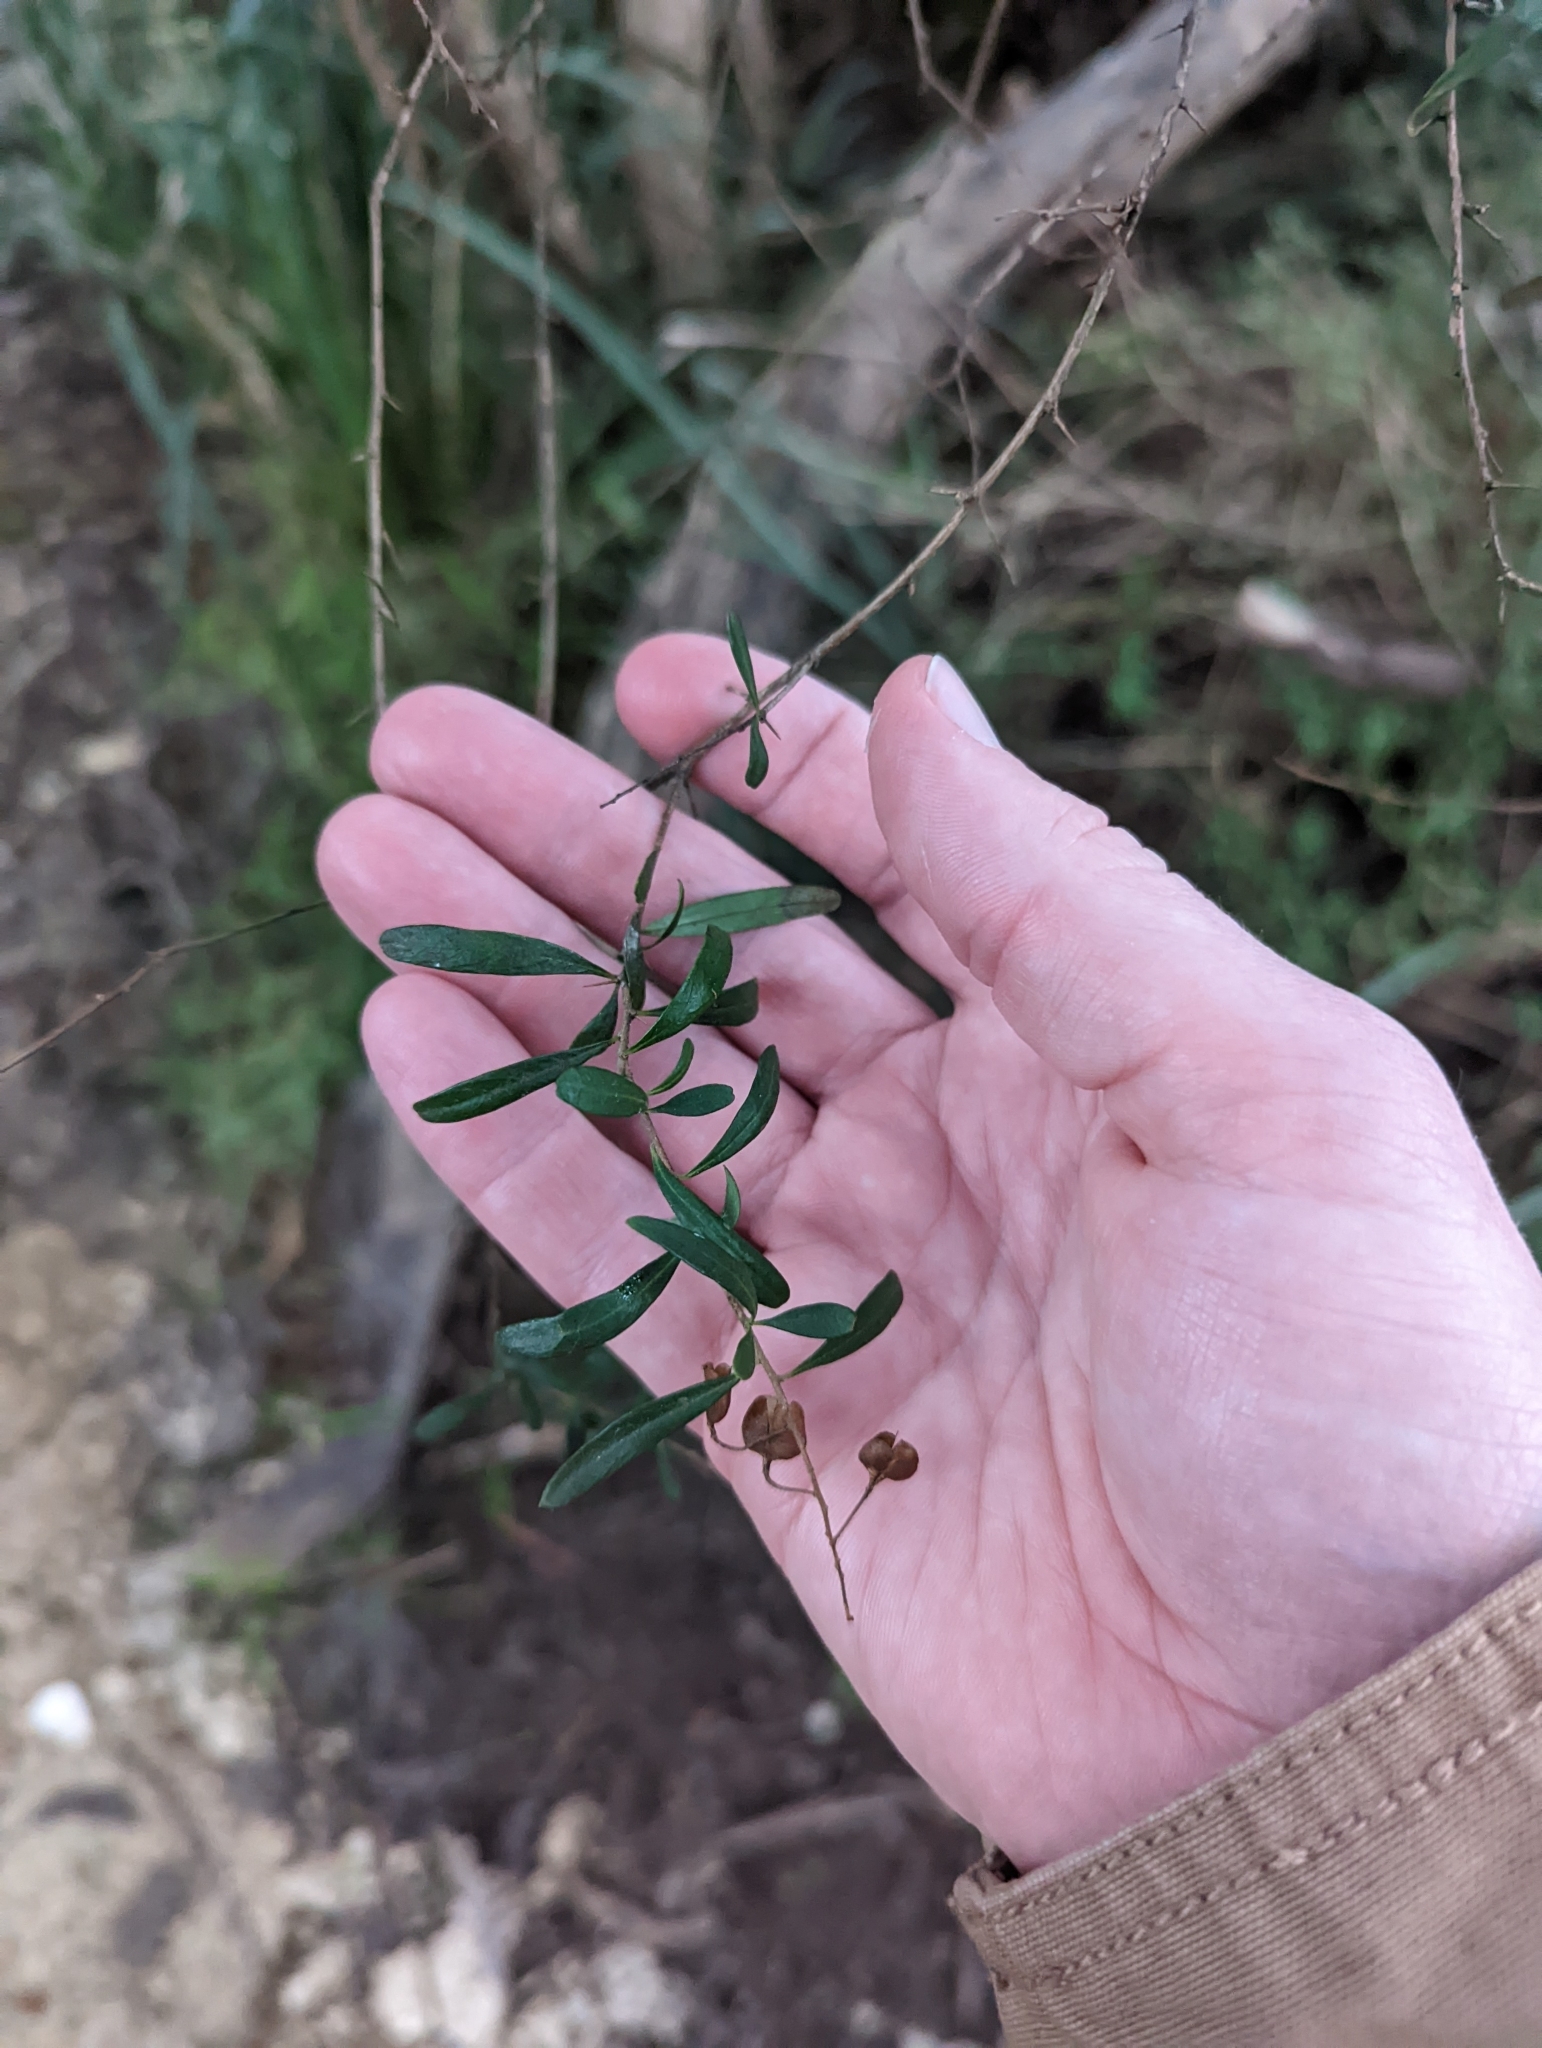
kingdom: Plantae
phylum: Tracheophyta
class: Magnoliopsida
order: Apiales
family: Pittosporaceae
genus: Bursaria
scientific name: Bursaria spinosa
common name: Australian blackthorn
